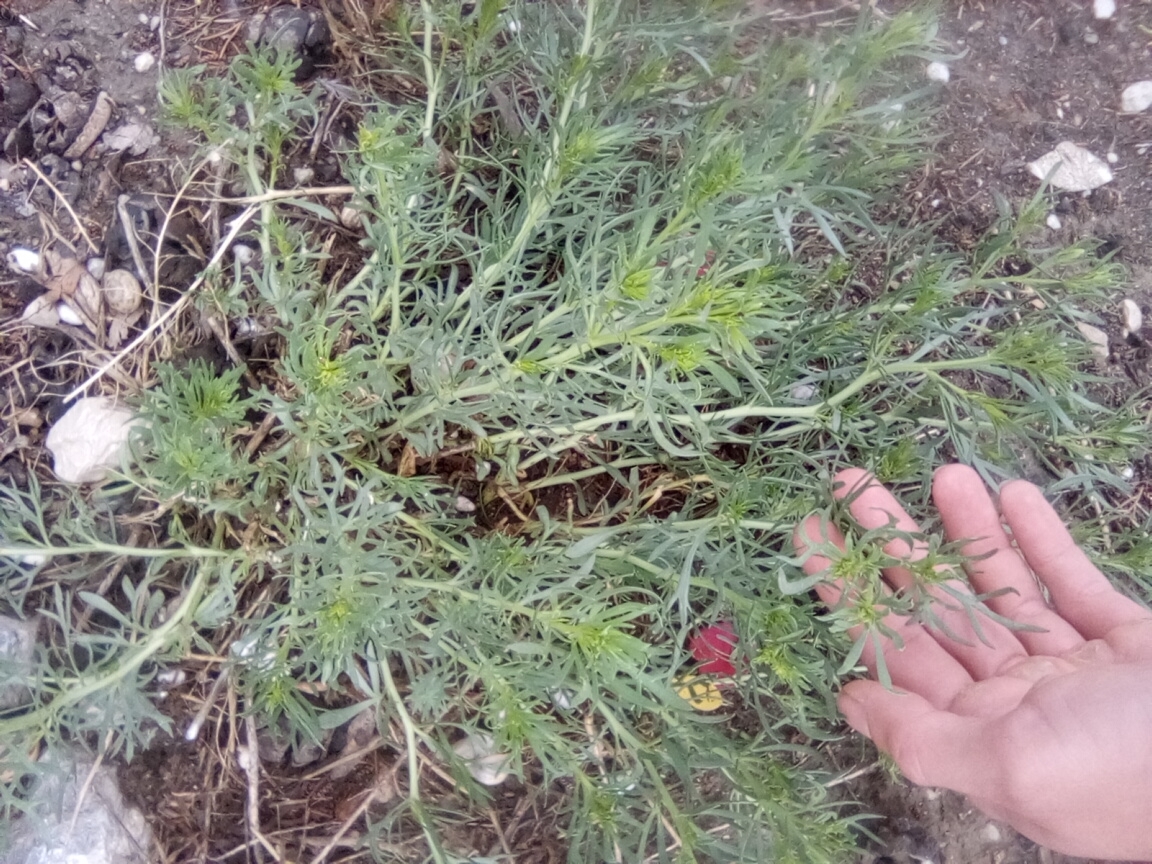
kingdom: Plantae
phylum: Tracheophyta
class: Magnoliopsida
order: Sapindales
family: Tetradiclidaceae
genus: Peganum
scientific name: Peganum harmala
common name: Harmal peganum
